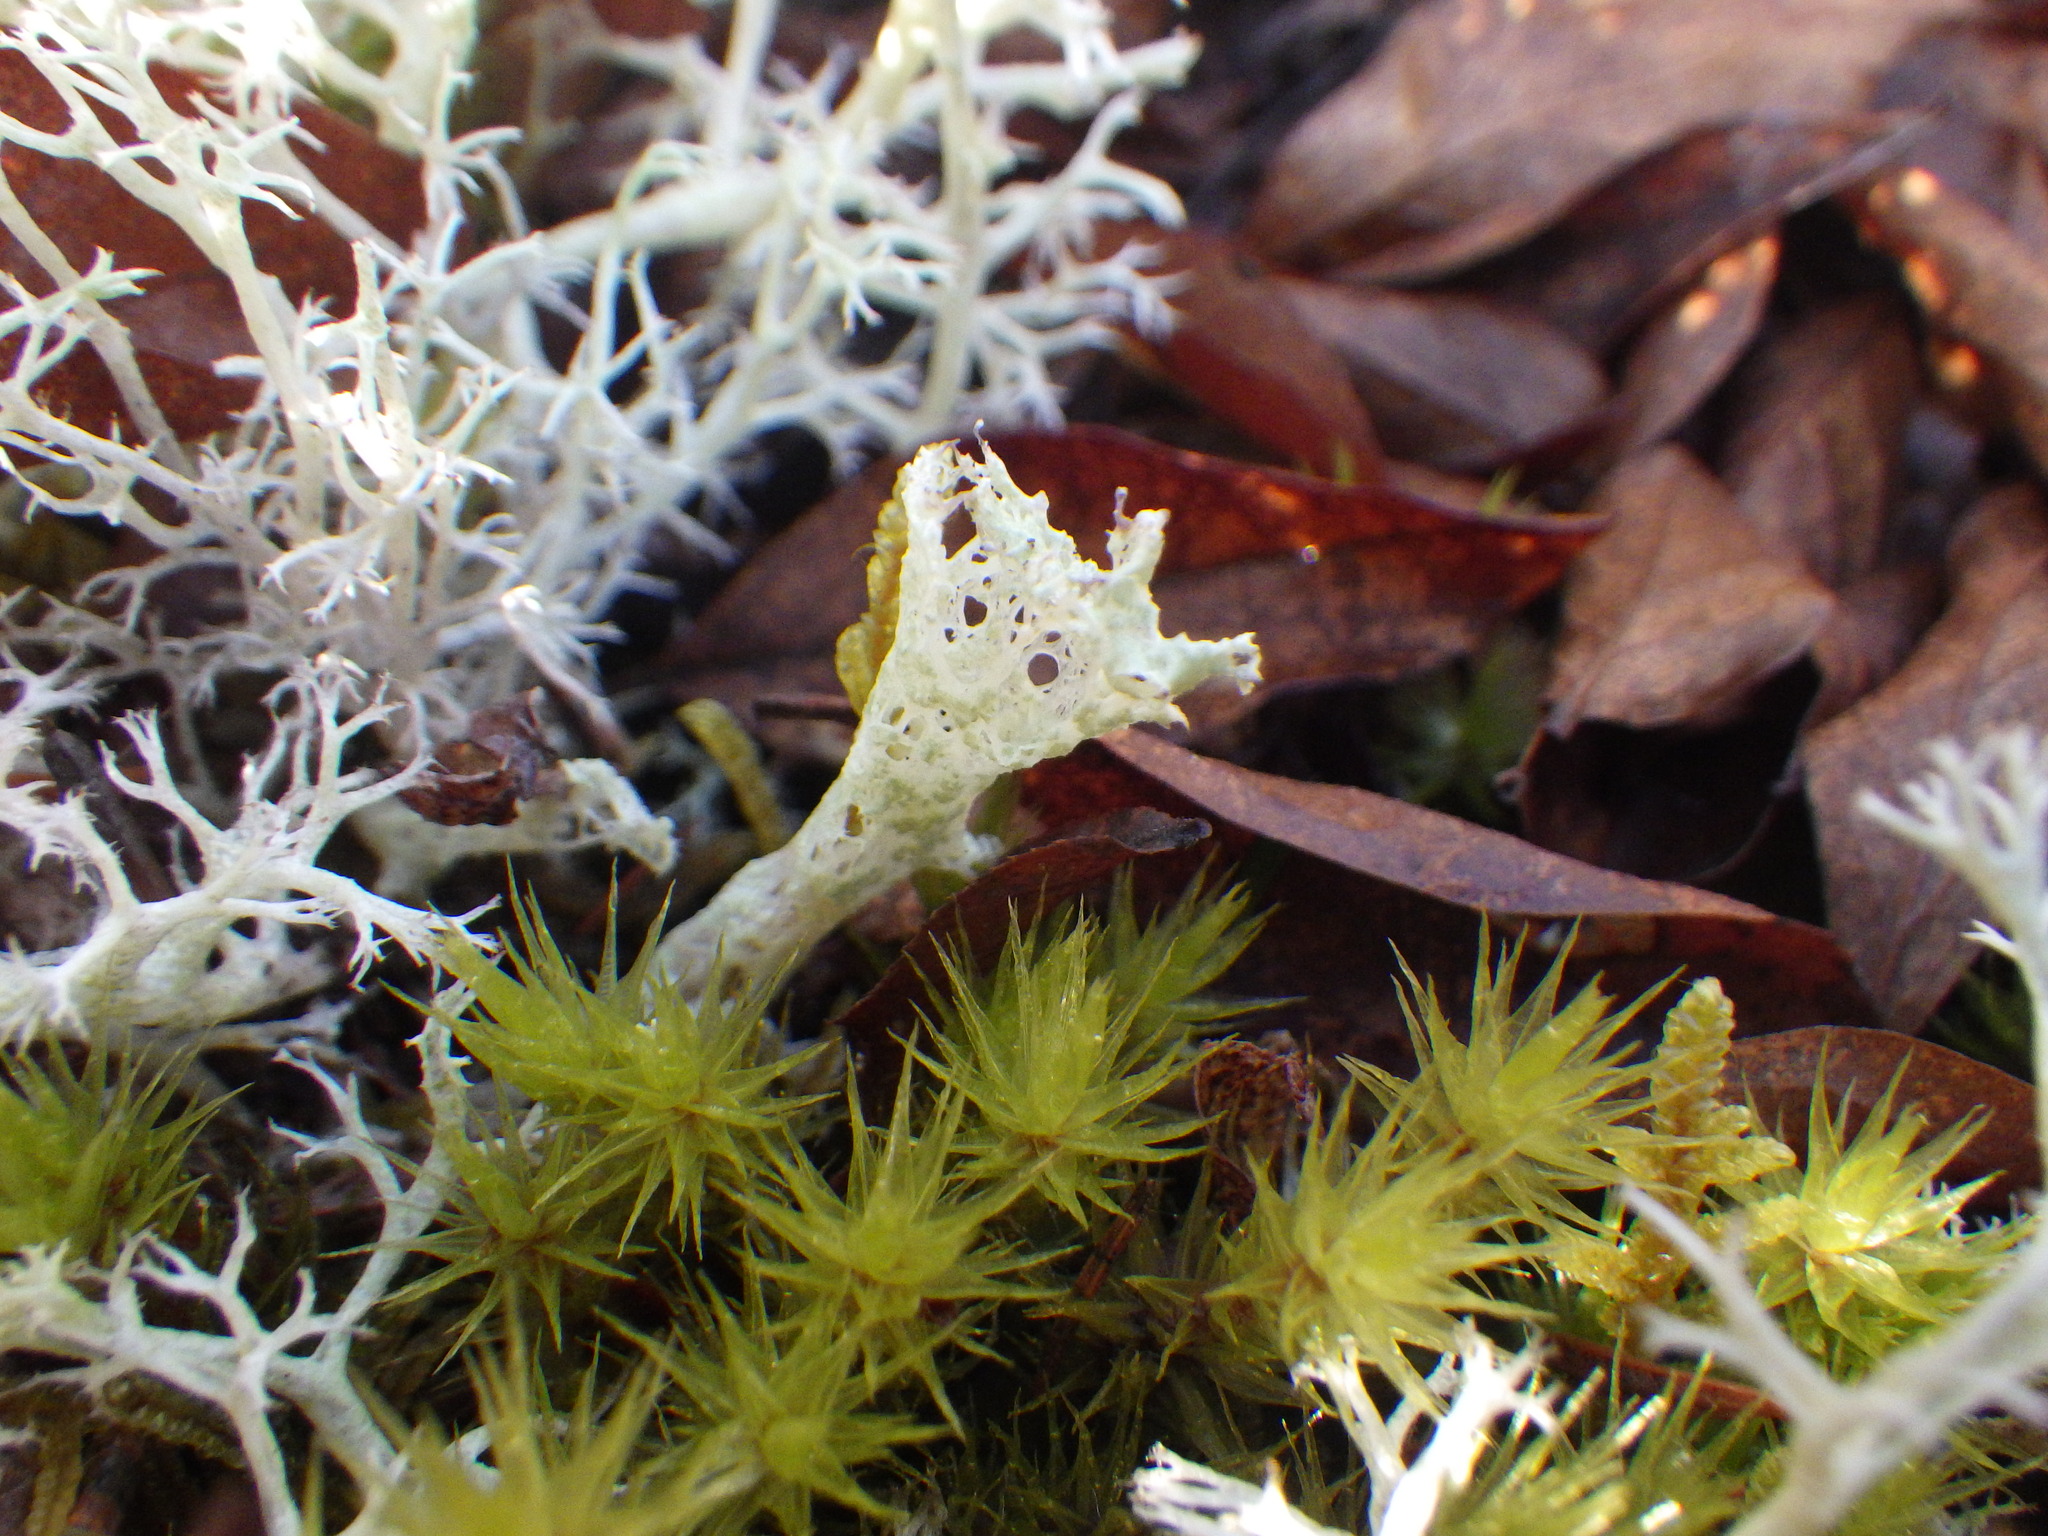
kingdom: Fungi
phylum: Ascomycota
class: Lecanoromycetes
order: Lecanorales
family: Cladoniaceae
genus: Cladonia
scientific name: Cladonia boryi
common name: Fishnet cladonia
